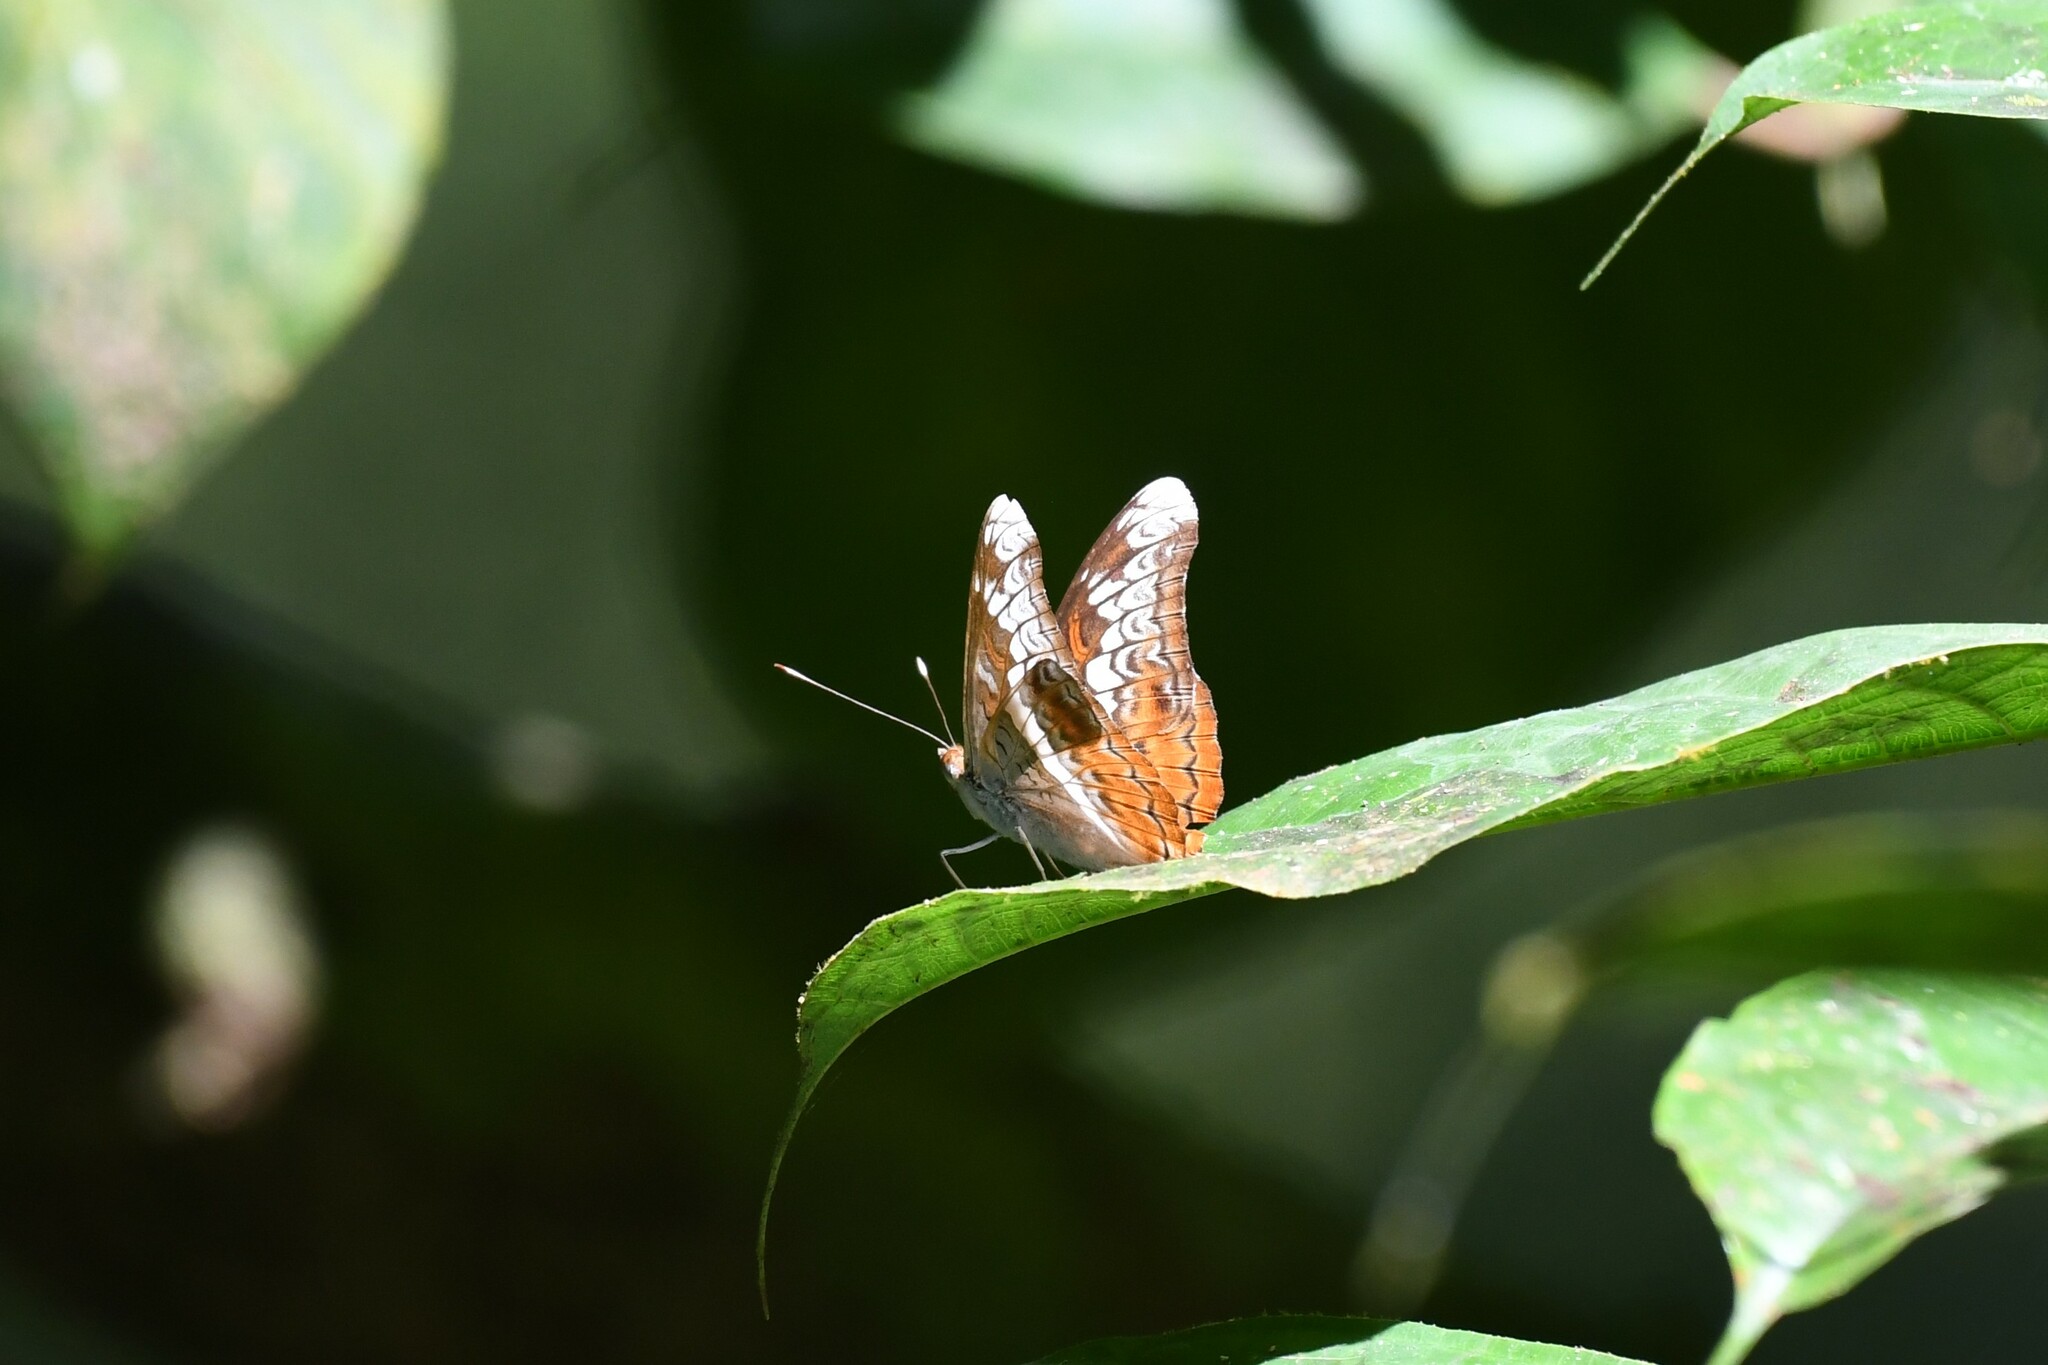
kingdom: Animalia
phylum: Arthropoda
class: Insecta
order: Lepidoptera
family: Nymphalidae
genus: Lebadea
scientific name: Lebadea martha
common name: Knight
